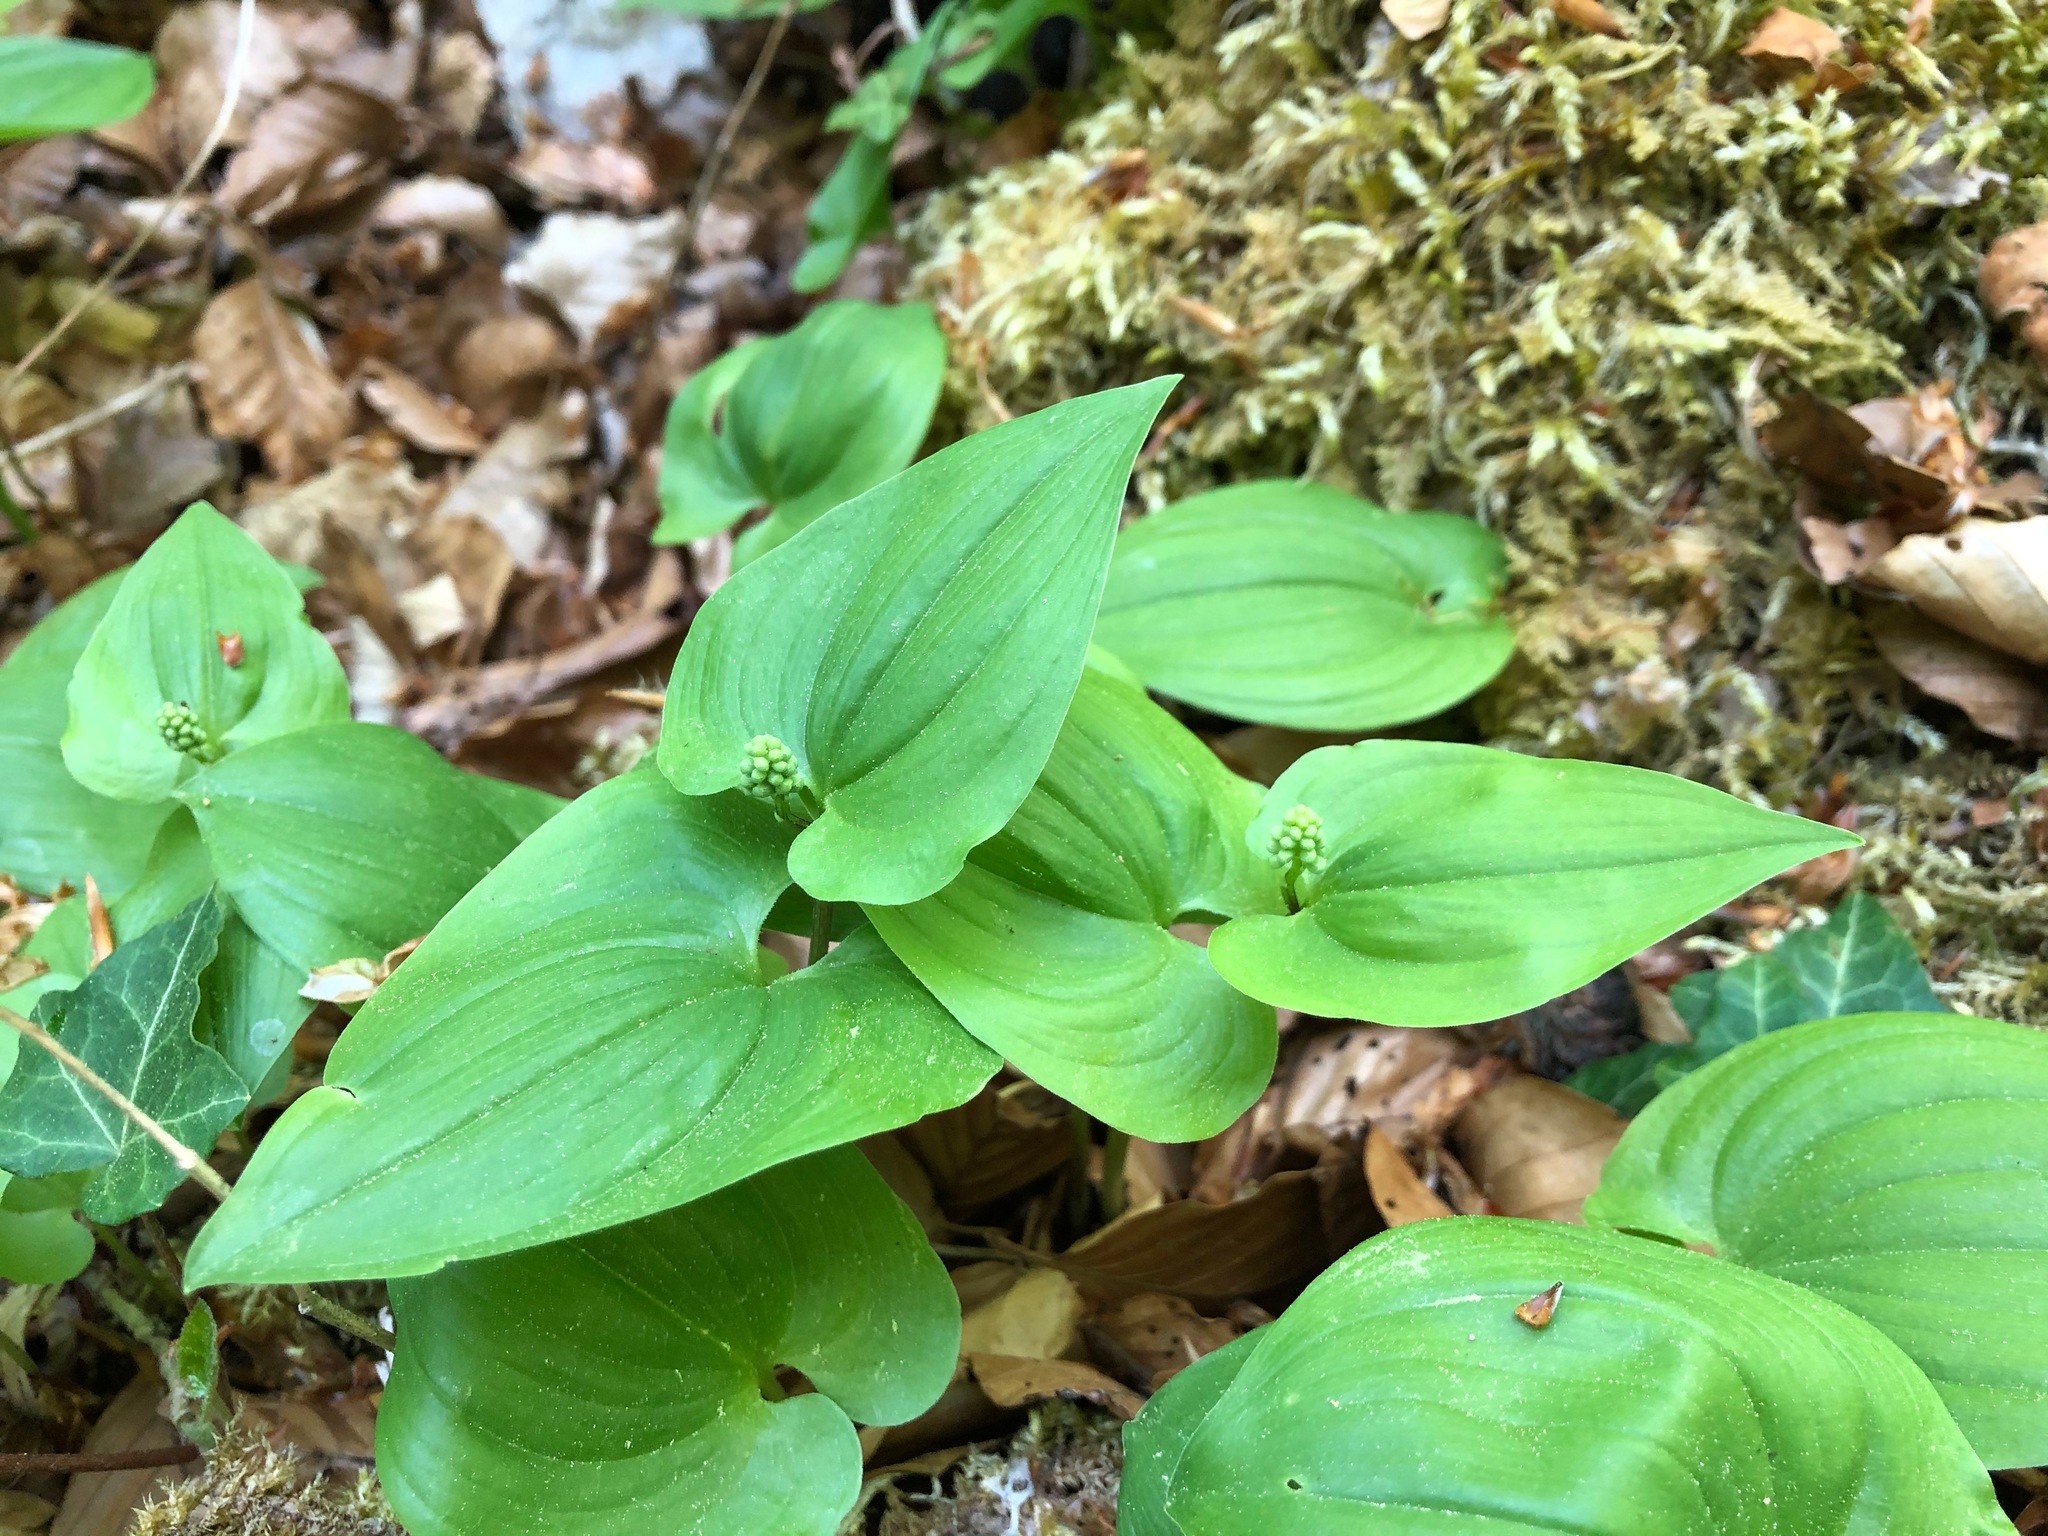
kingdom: Plantae
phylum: Tracheophyta
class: Liliopsida
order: Asparagales
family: Asparagaceae
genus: Maianthemum
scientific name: Maianthemum bifolium
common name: May lily
